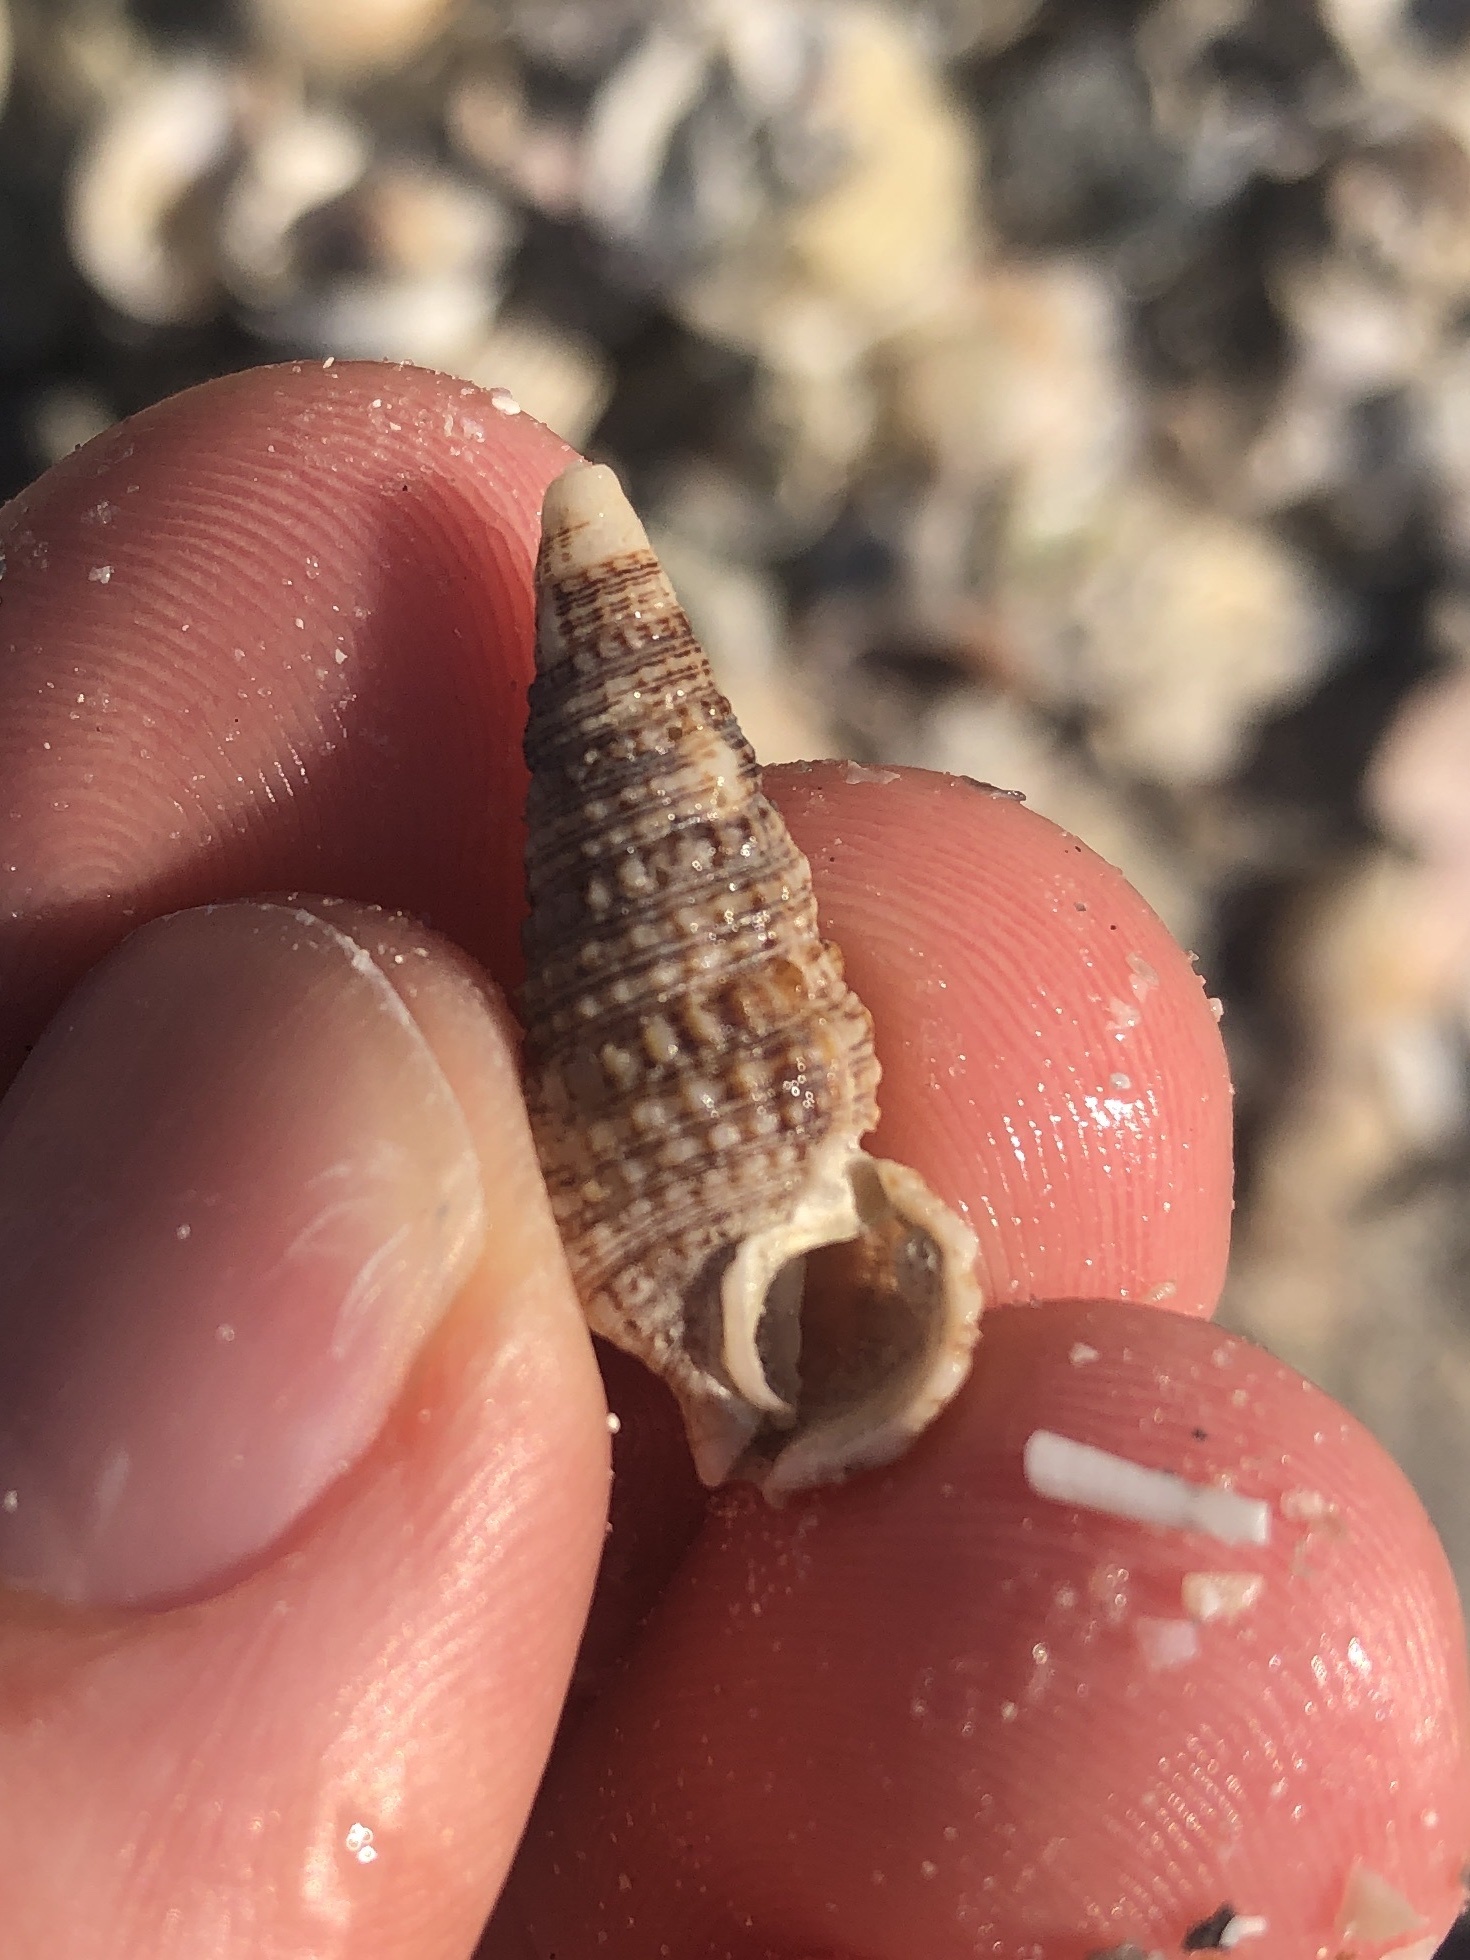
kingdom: Animalia
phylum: Mollusca
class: Gastropoda
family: Cerithiidae
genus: Cerithium
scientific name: Cerithium atratum
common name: Dark cerith
